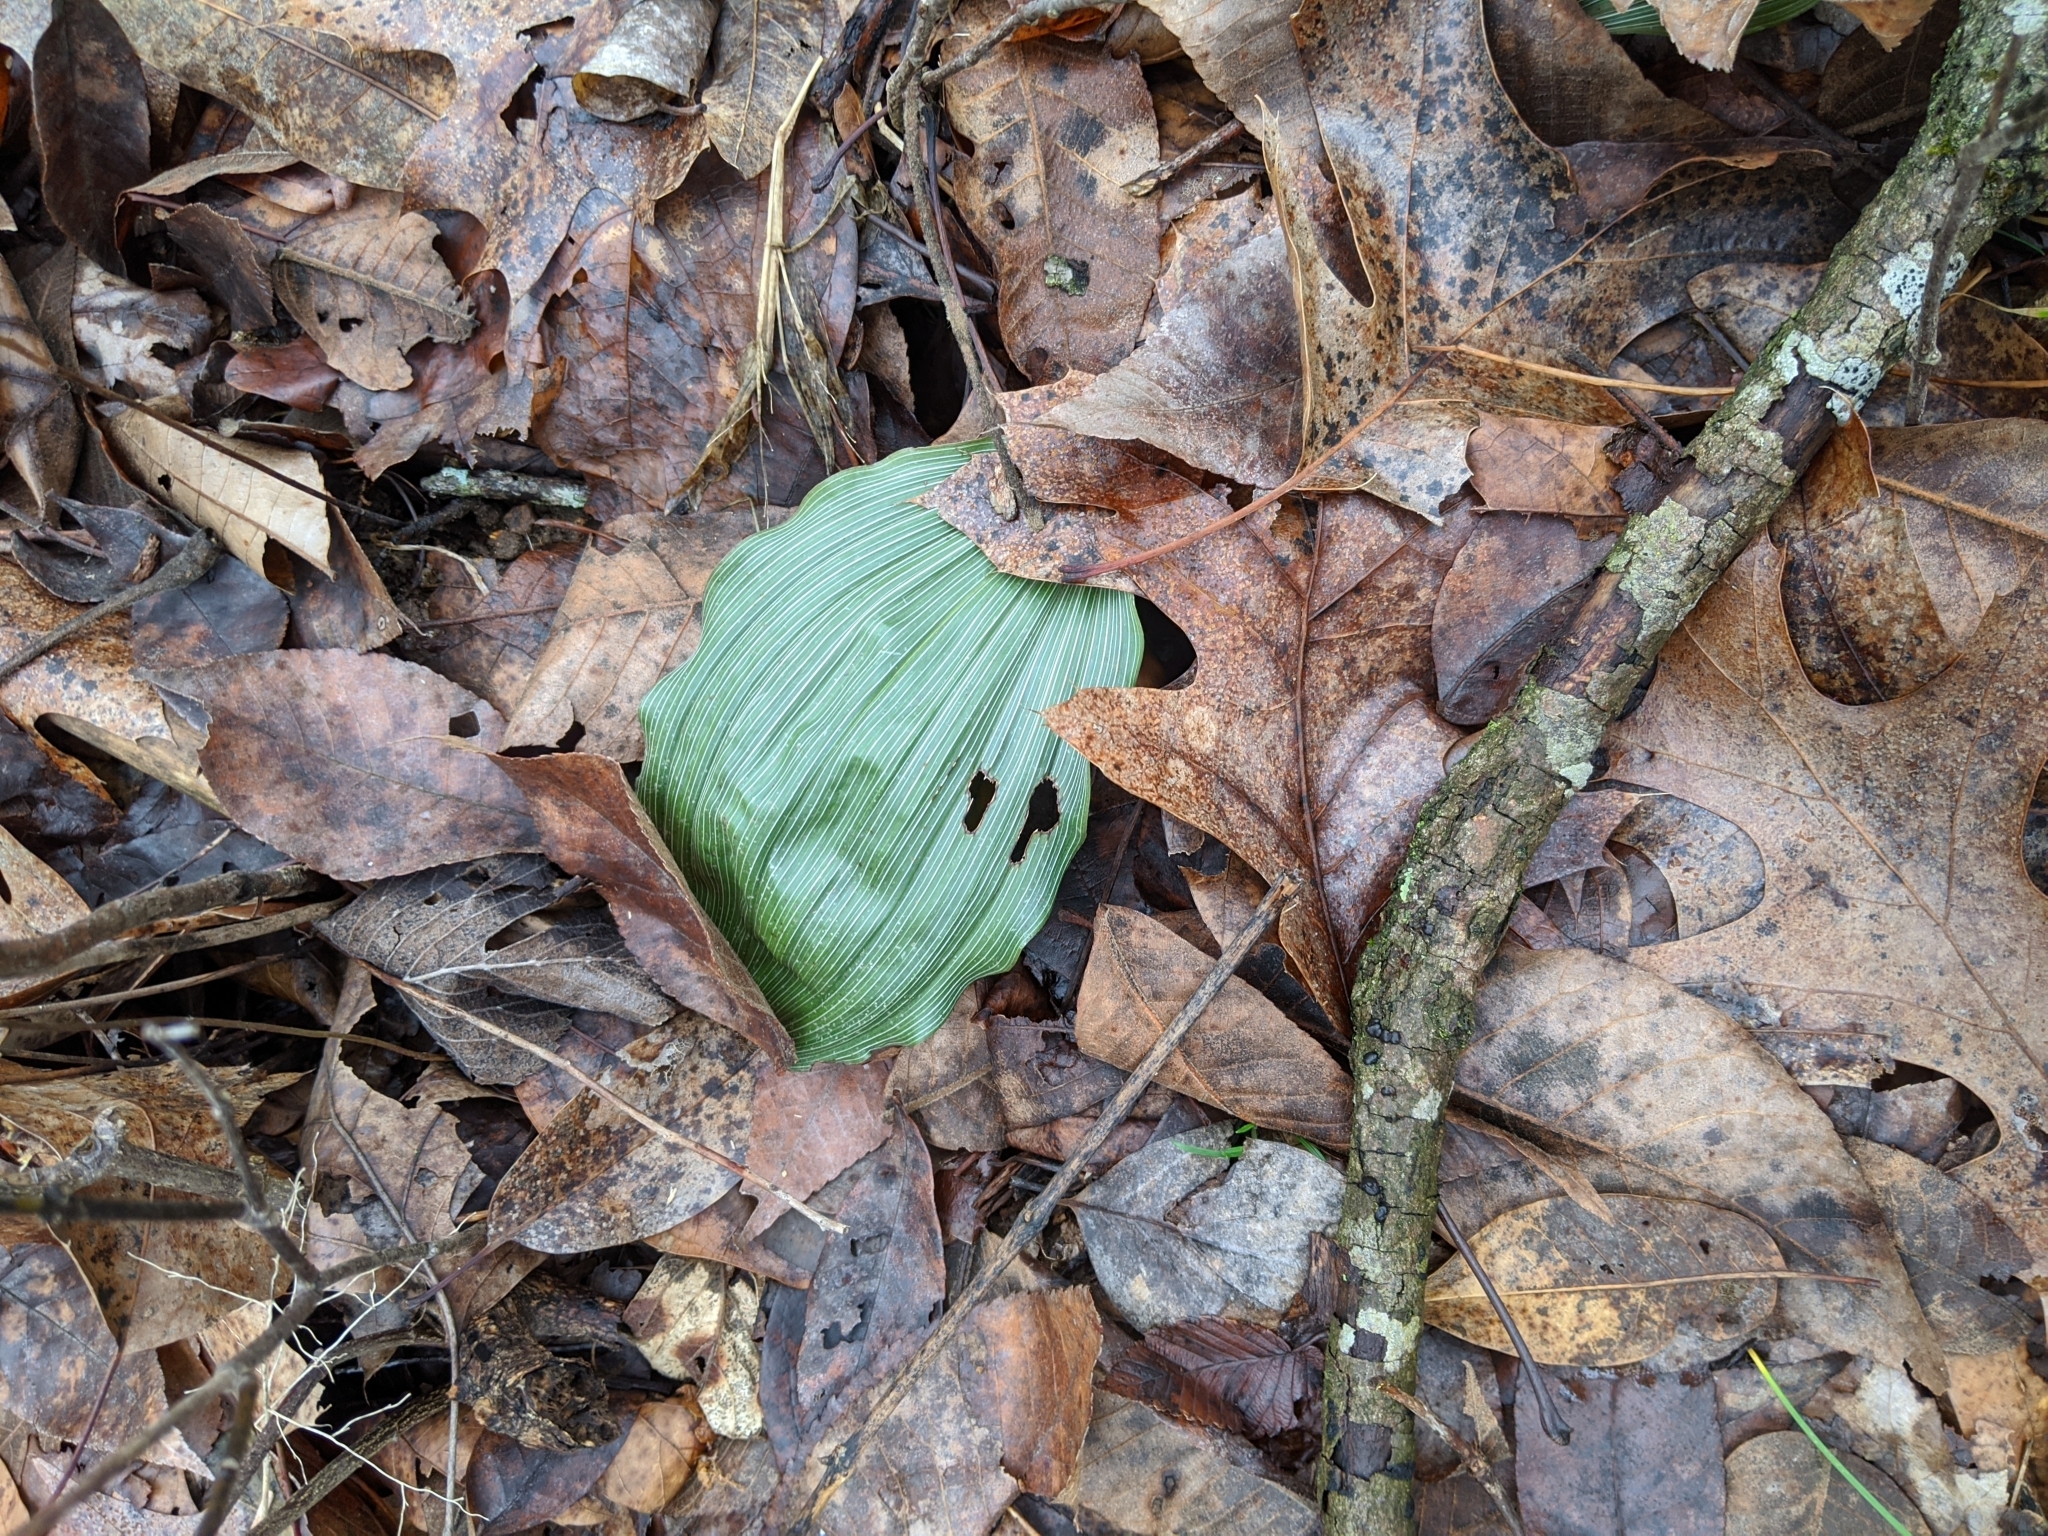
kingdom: Plantae
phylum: Tracheophyta
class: Liliopsida
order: Asparagales
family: Orchidaceae
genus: Aplectrum
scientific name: Aplectrum hyemale
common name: Adam-and-eve
